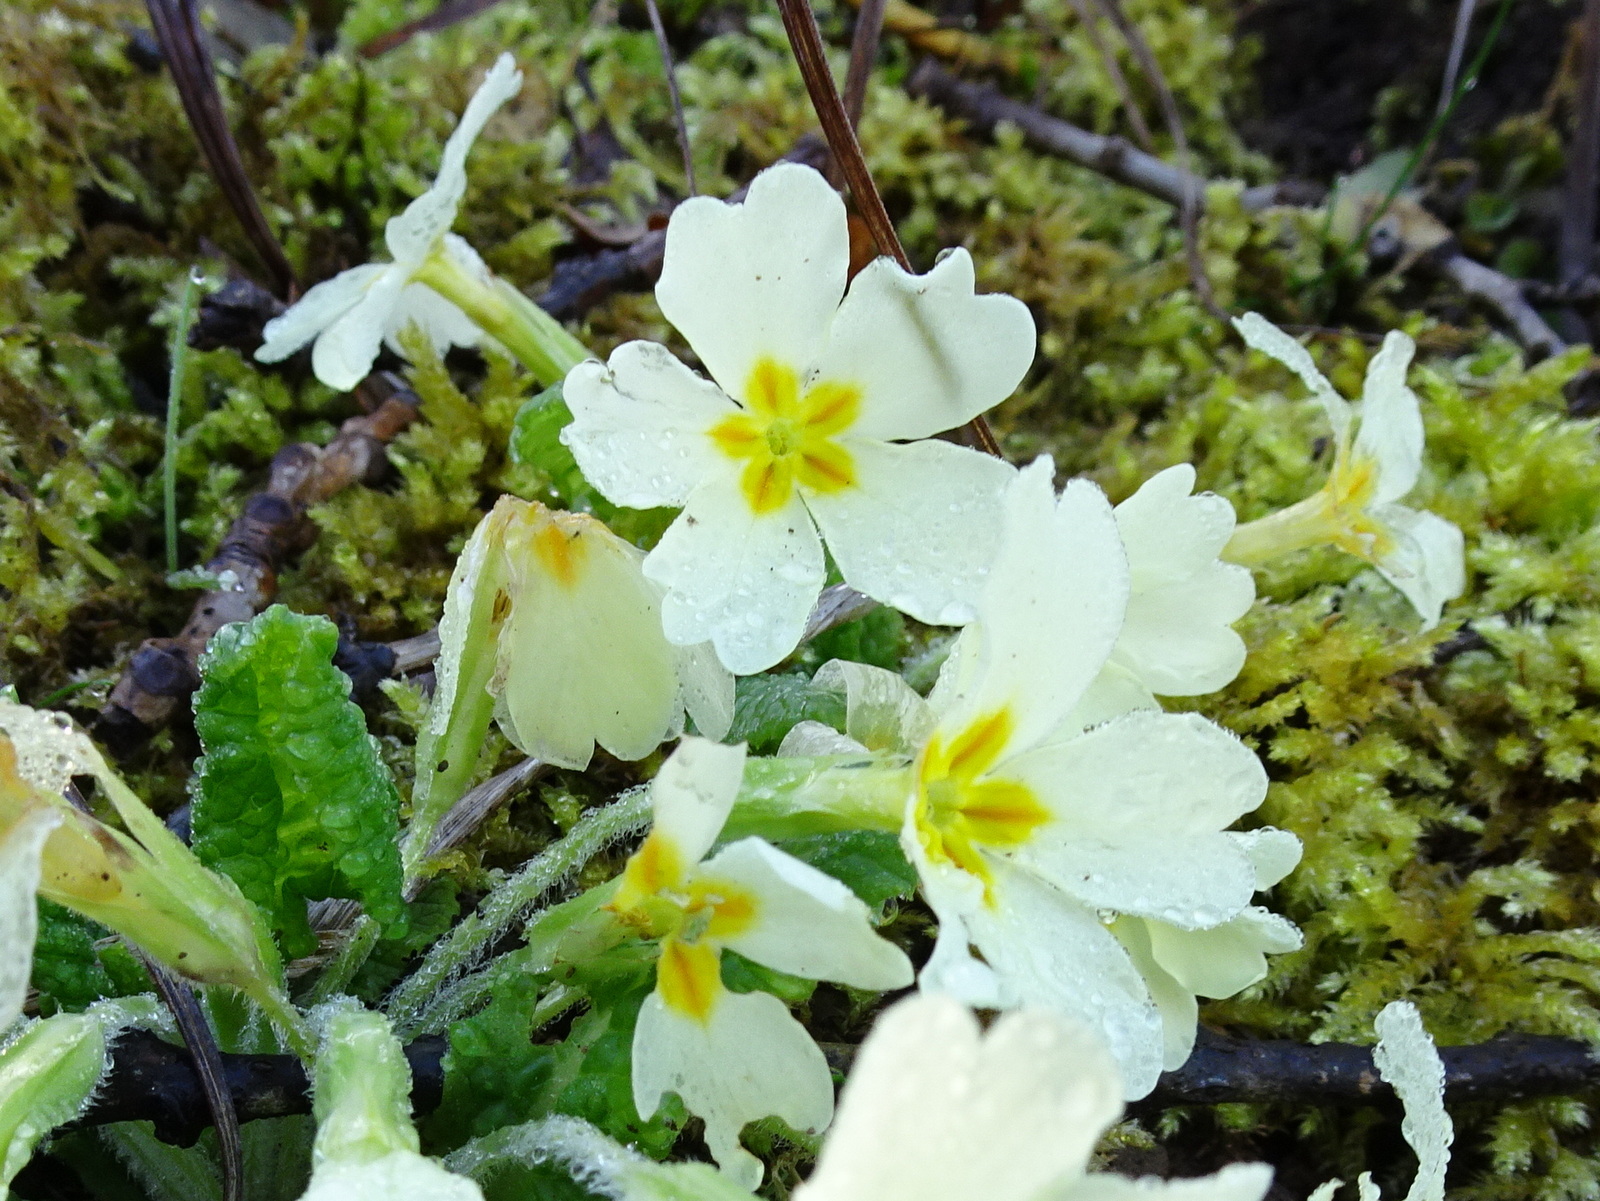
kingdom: Plantae
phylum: Tracheophyta
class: Magnoliopsida
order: Ericales
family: Primulaceae
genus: Primula
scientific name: Primula vulgaris
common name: Primrose
